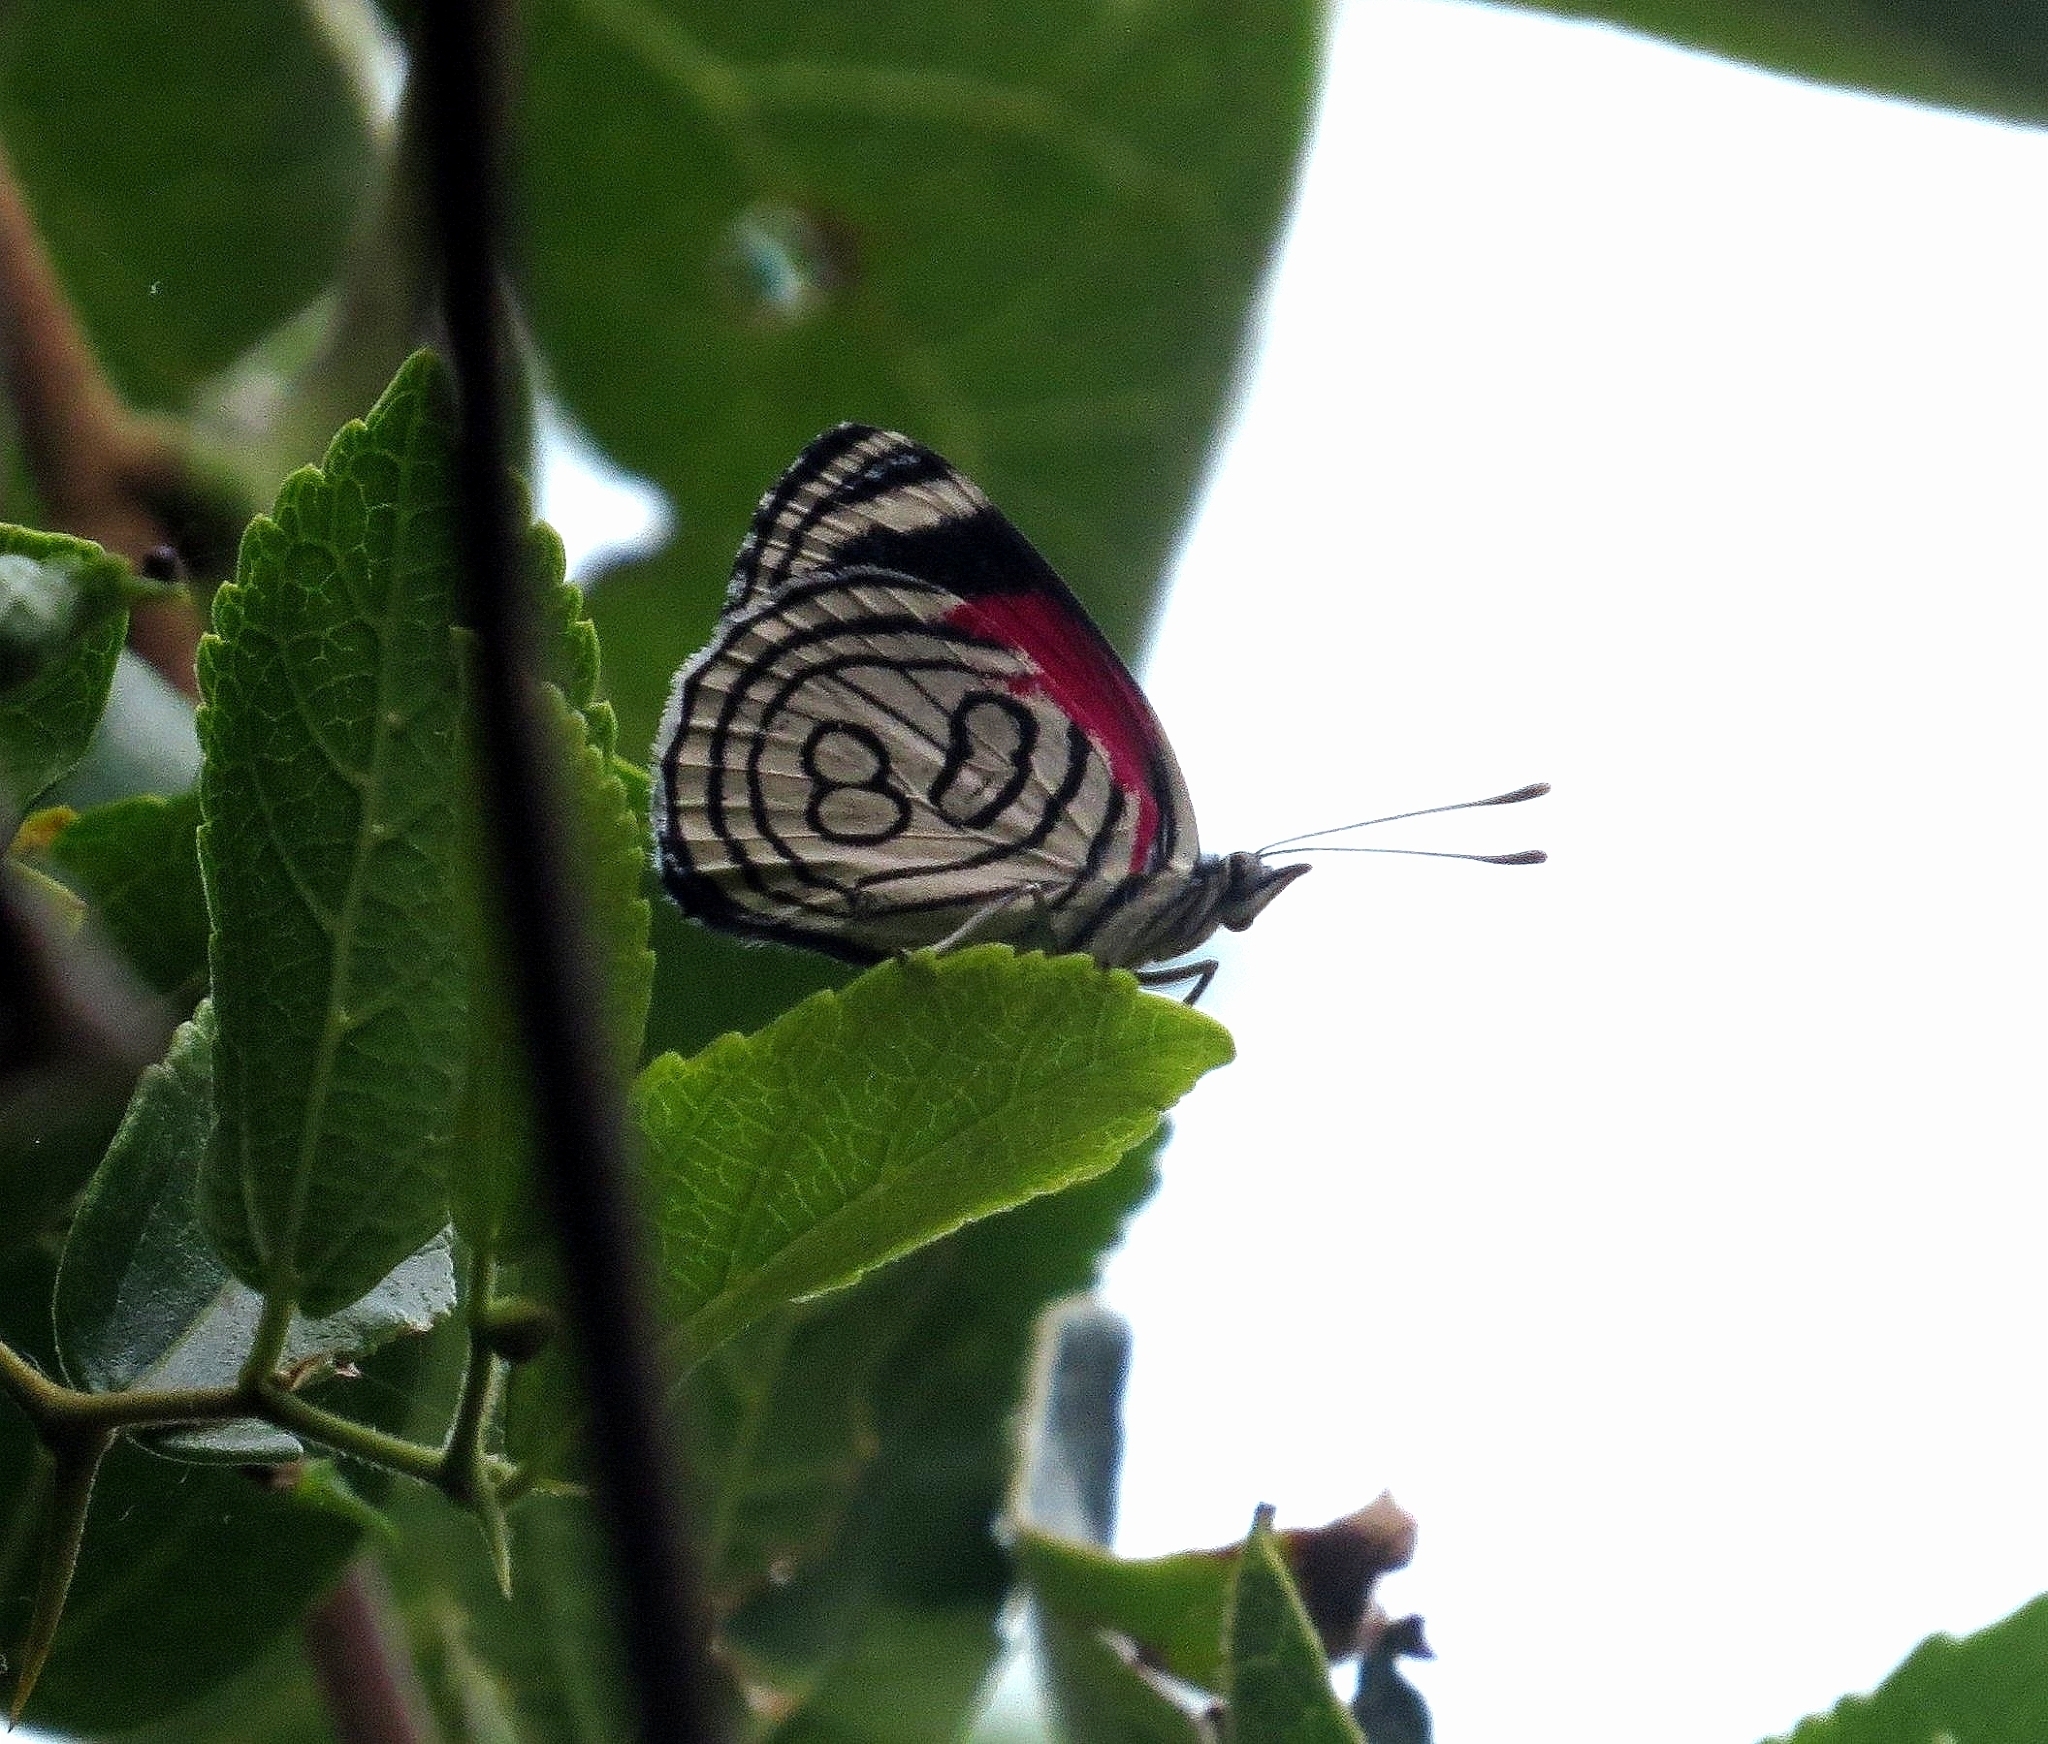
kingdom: Animalia
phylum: Arthropoda
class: Insecta
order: Lepidoptera
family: Nymphalidae
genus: Diaethria
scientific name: Diaethria candrena
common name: Number eighty
